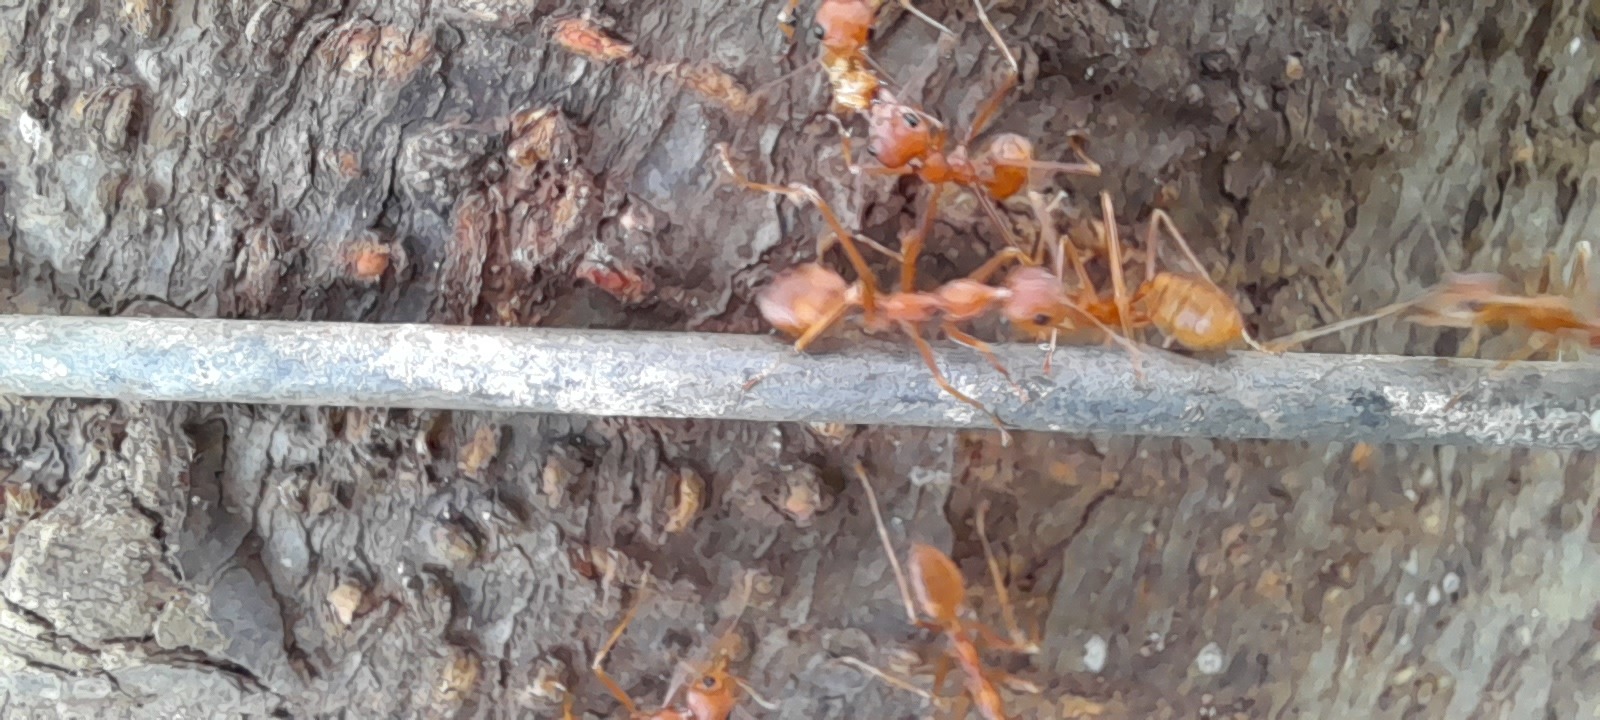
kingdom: Animalia
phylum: Arthropoda
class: Insecta
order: Hymenoptera
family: Formicidae
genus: Oecophylla
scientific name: Oecophylla smaragdina
